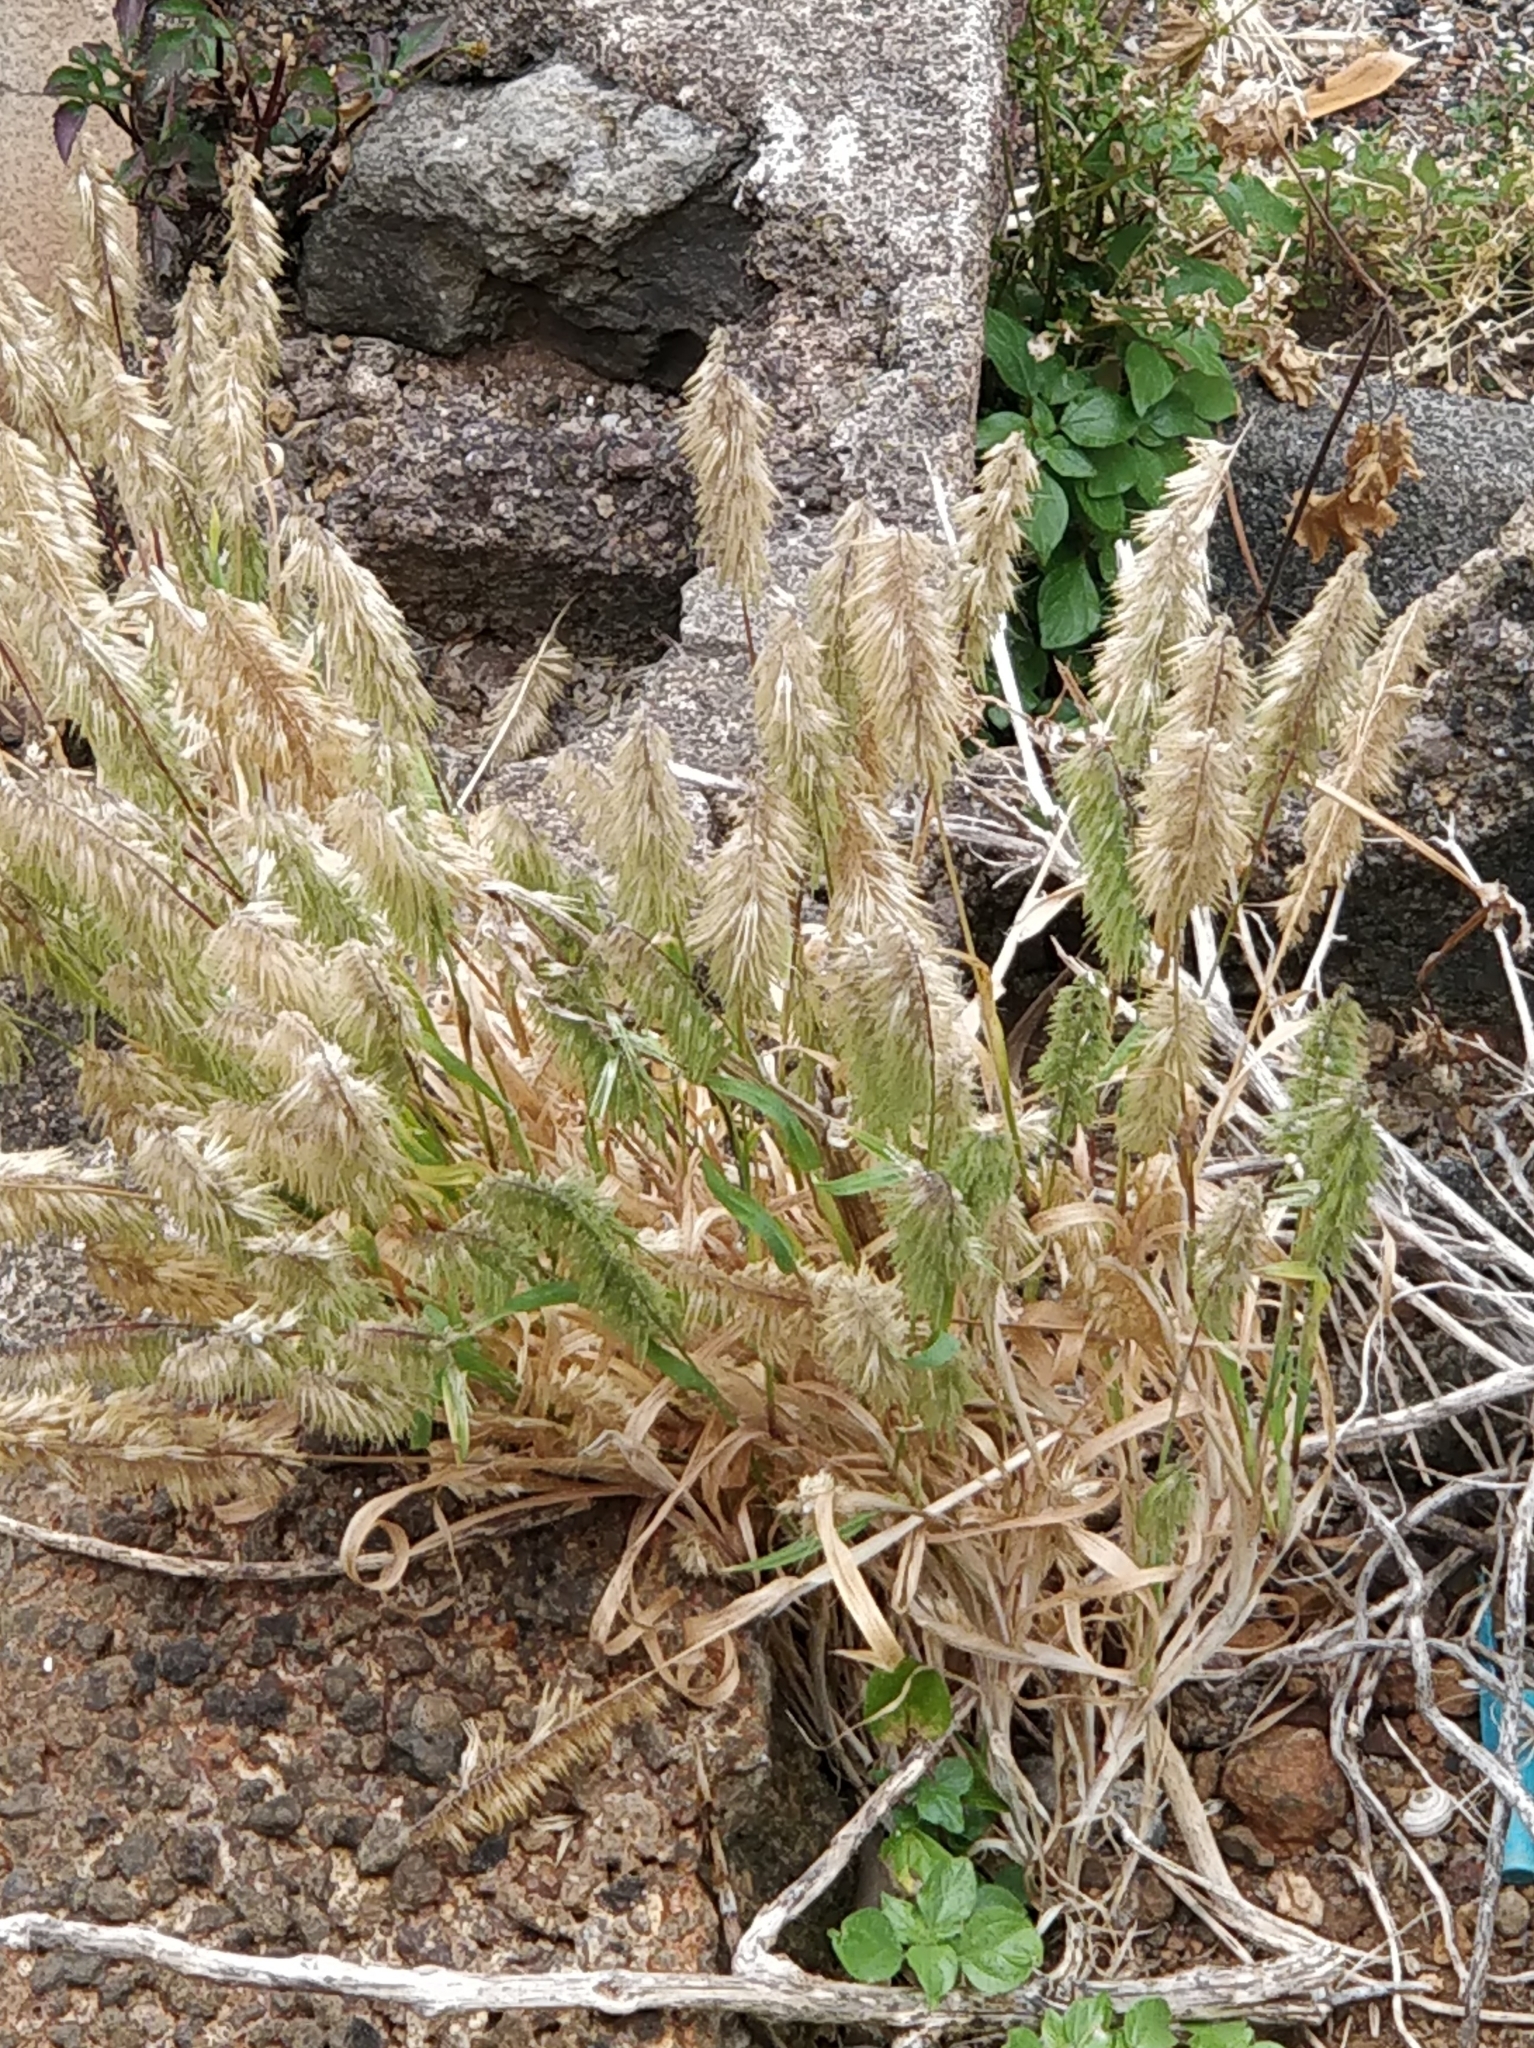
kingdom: Plantae
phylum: Tracheophyta
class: Liliopsida
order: Poales
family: Poaceae
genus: Lamarckia
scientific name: Lamarckia aurea
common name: Golden dog's-tail
